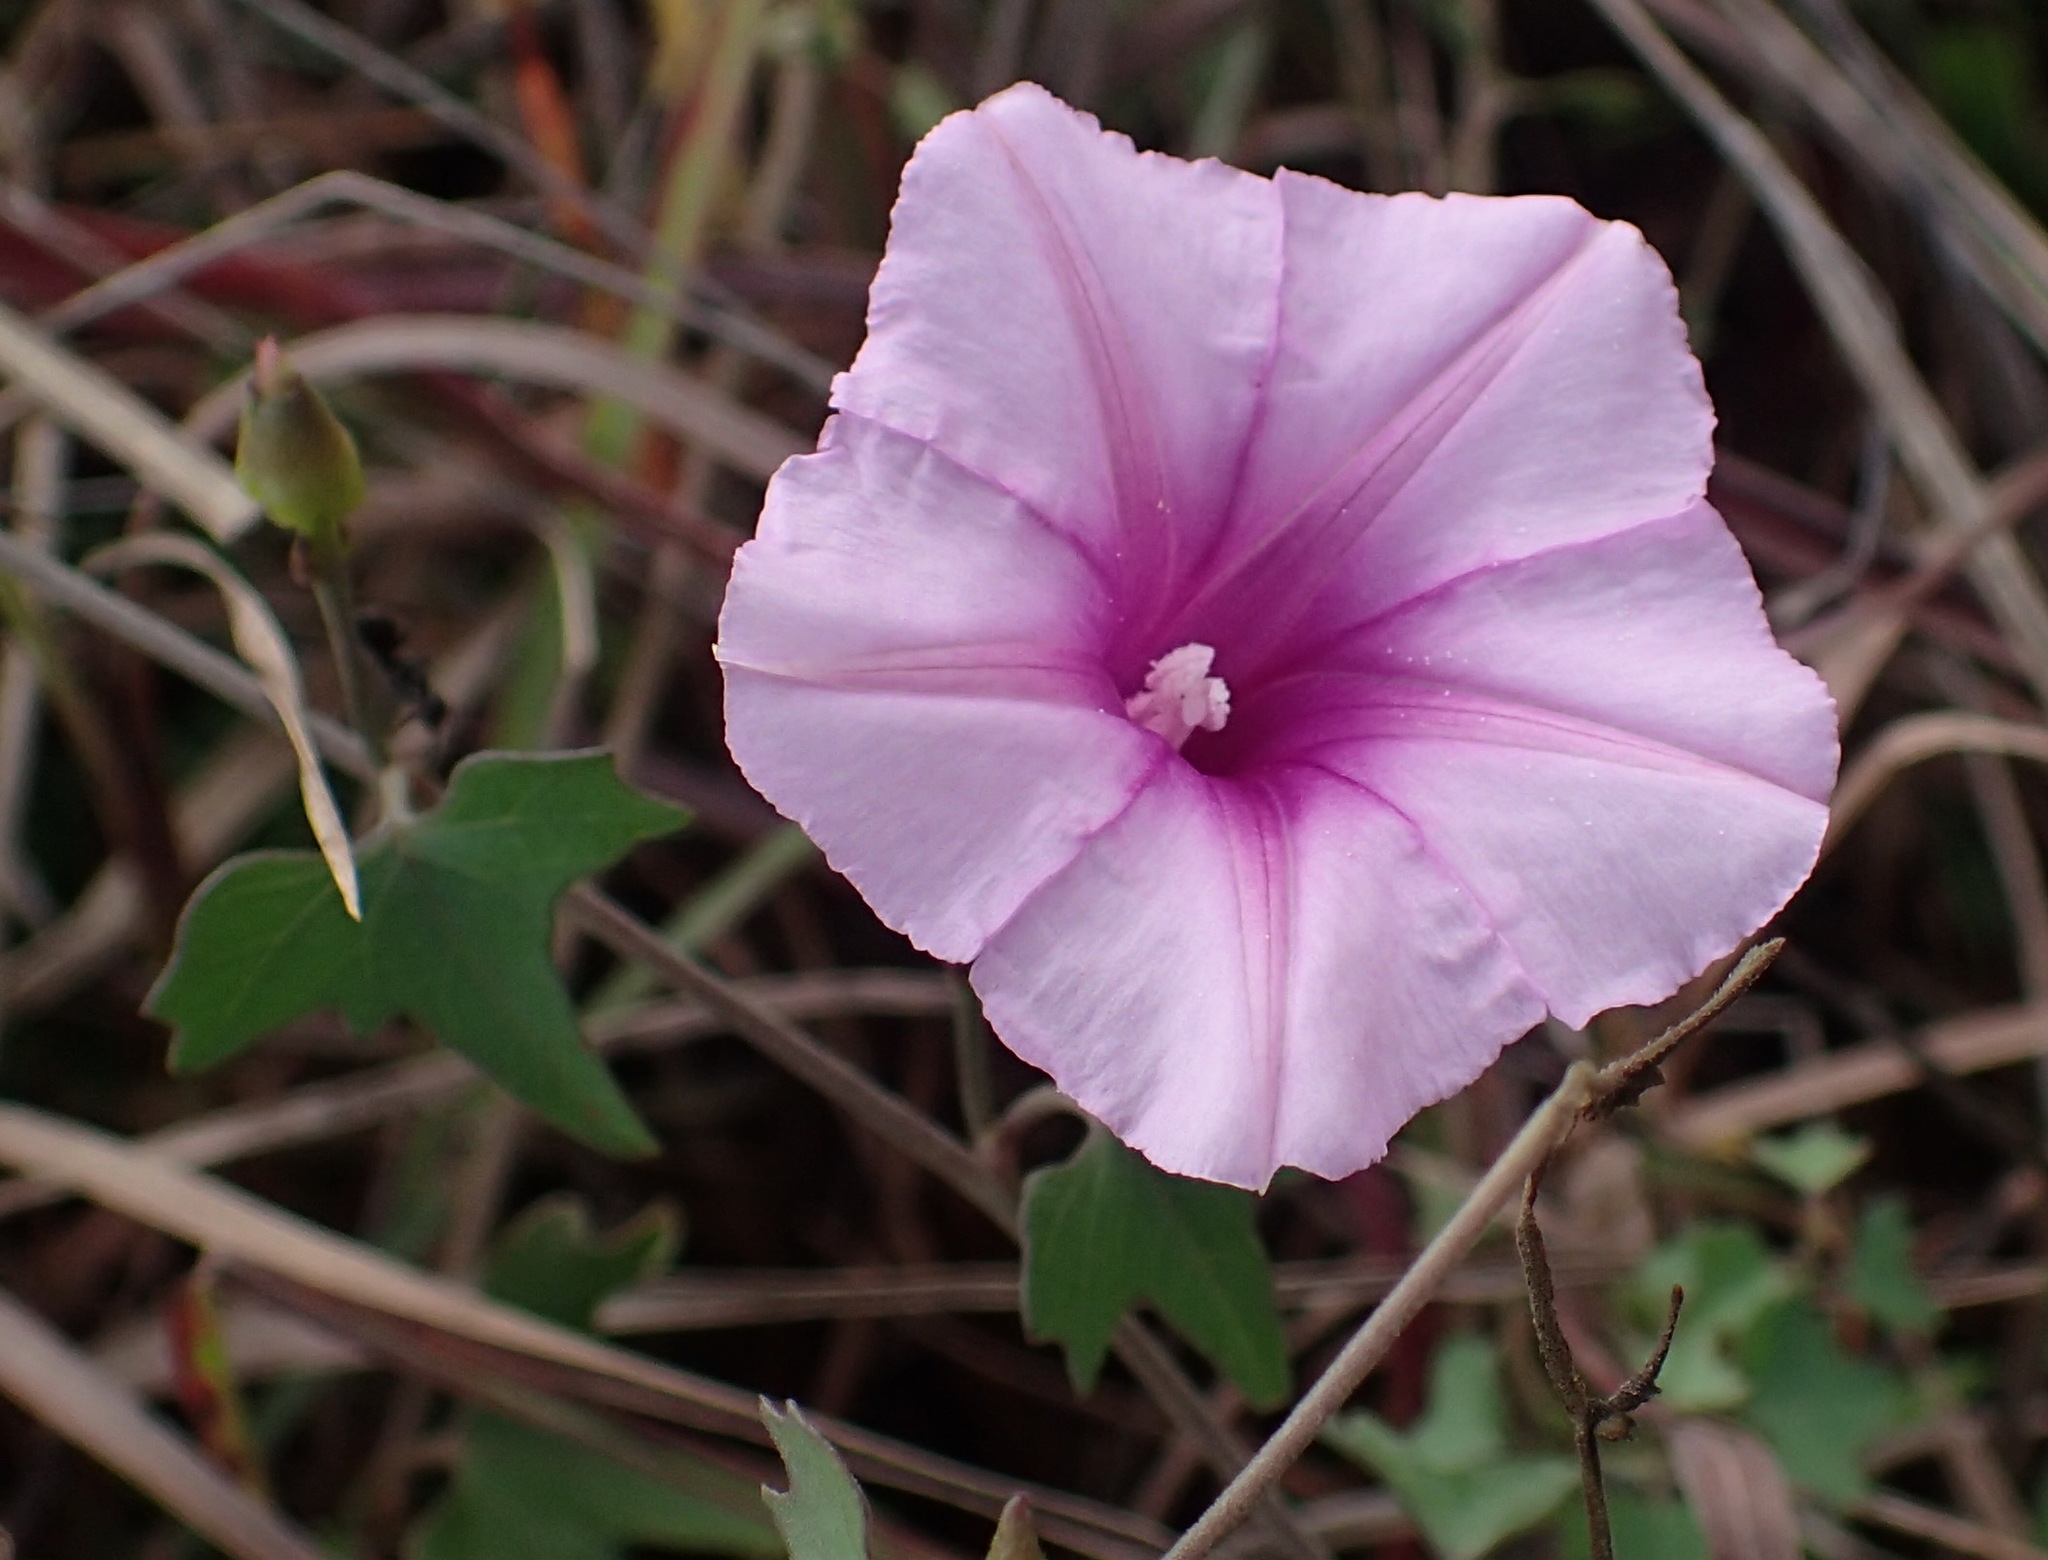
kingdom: Plantae
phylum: Tracheophyta
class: Magnoliopsida
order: Solanales
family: Convolvulaceae
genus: Ipomoea
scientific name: Ipomoea papilio
